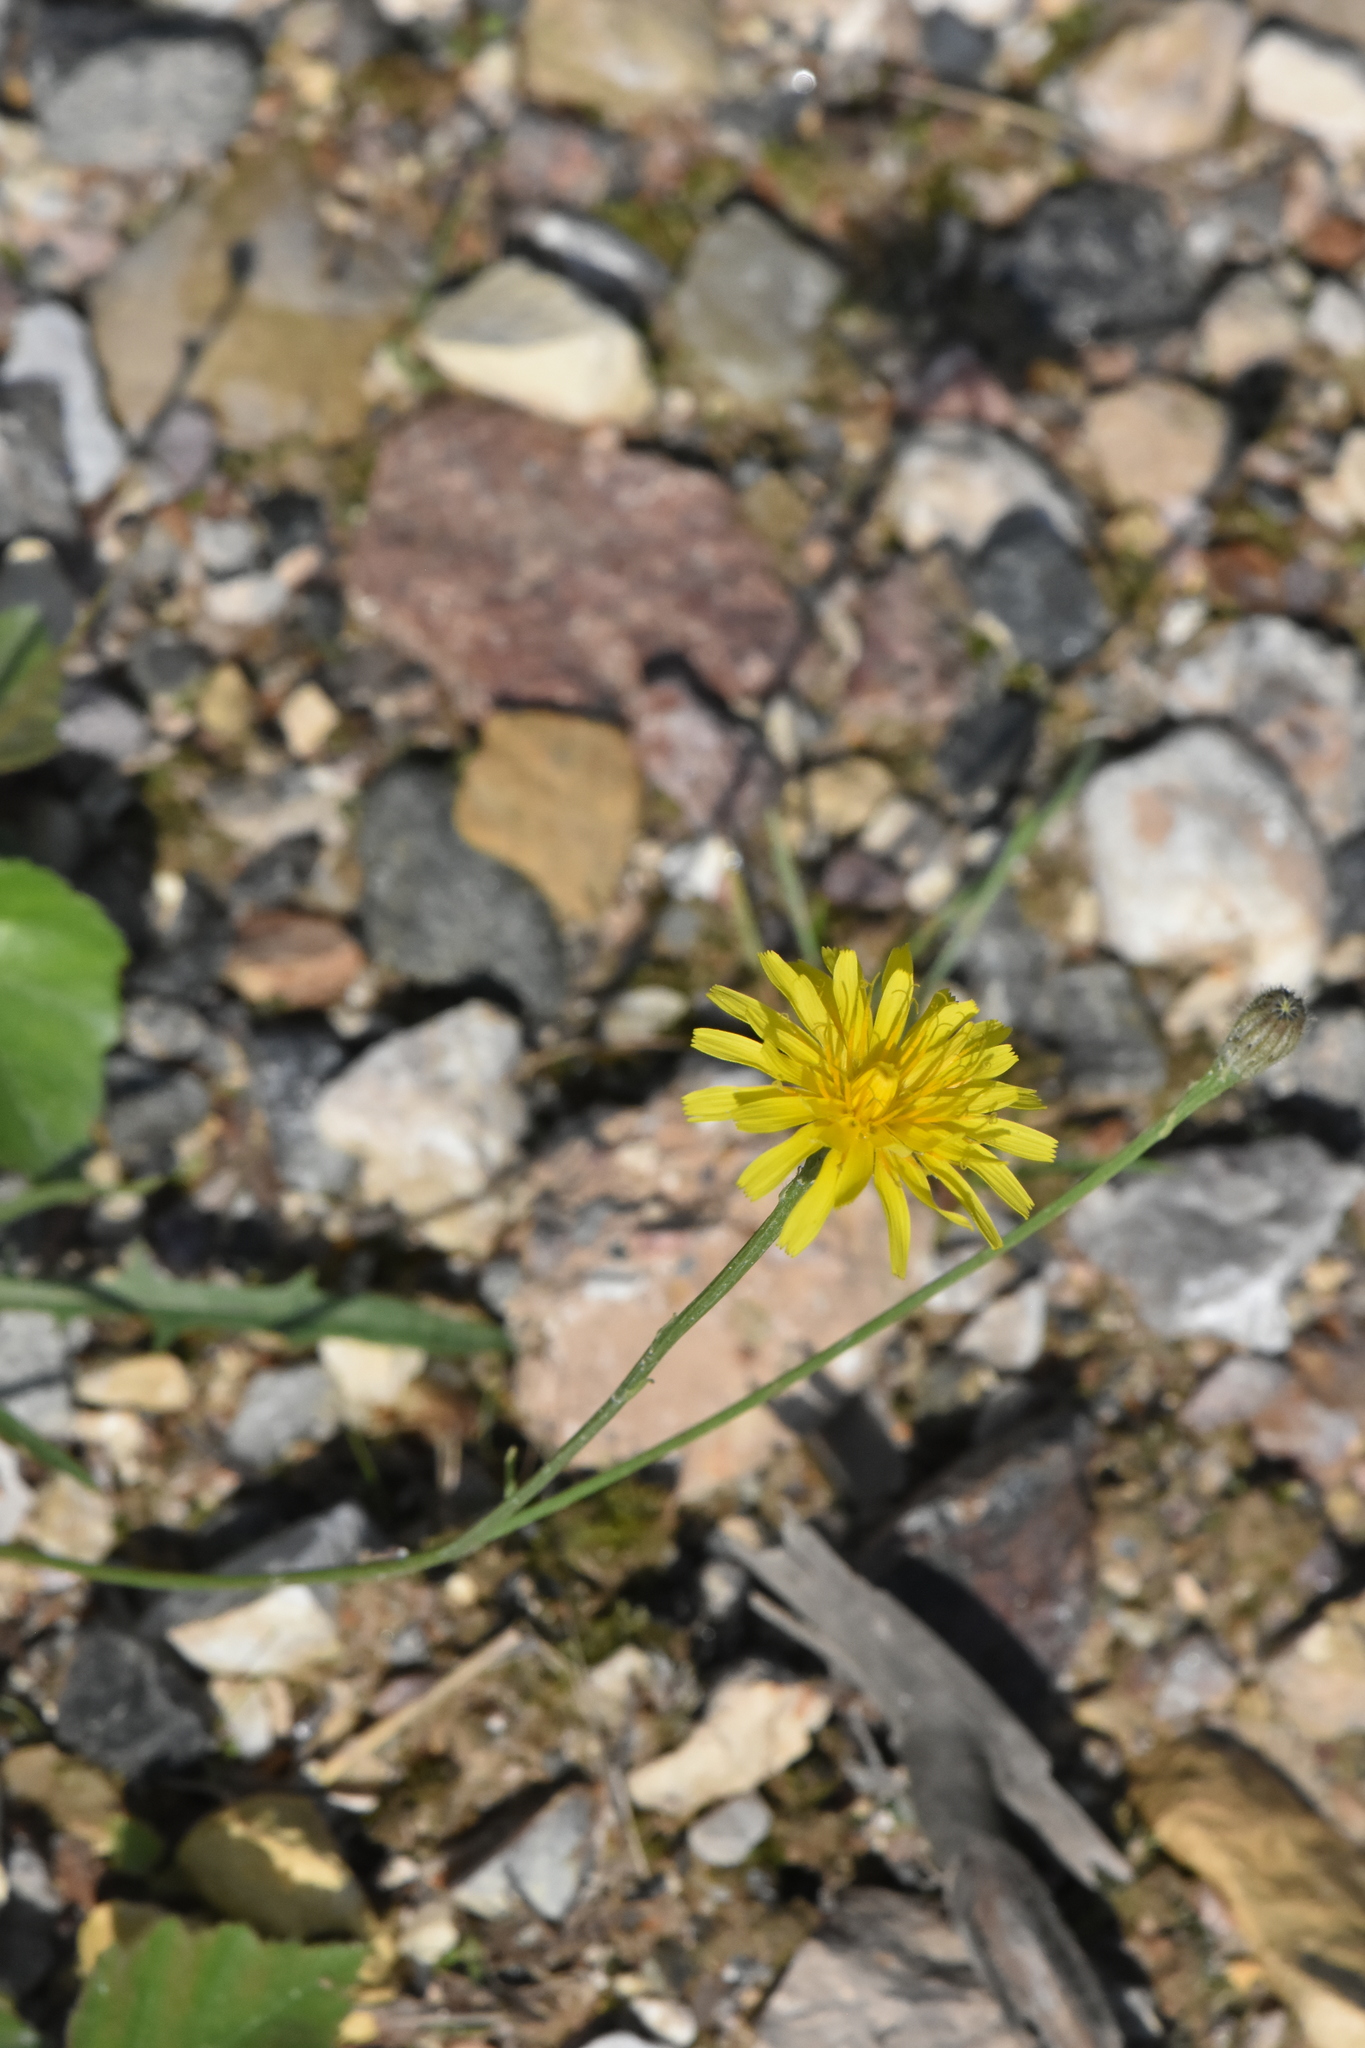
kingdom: Plantae
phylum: Tracheophyta
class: Magnoliopsida
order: Asterales
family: Asteraceae
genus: Scorzoneroides
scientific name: Scorzoneroides autumnalis
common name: Autumn hawkbit
